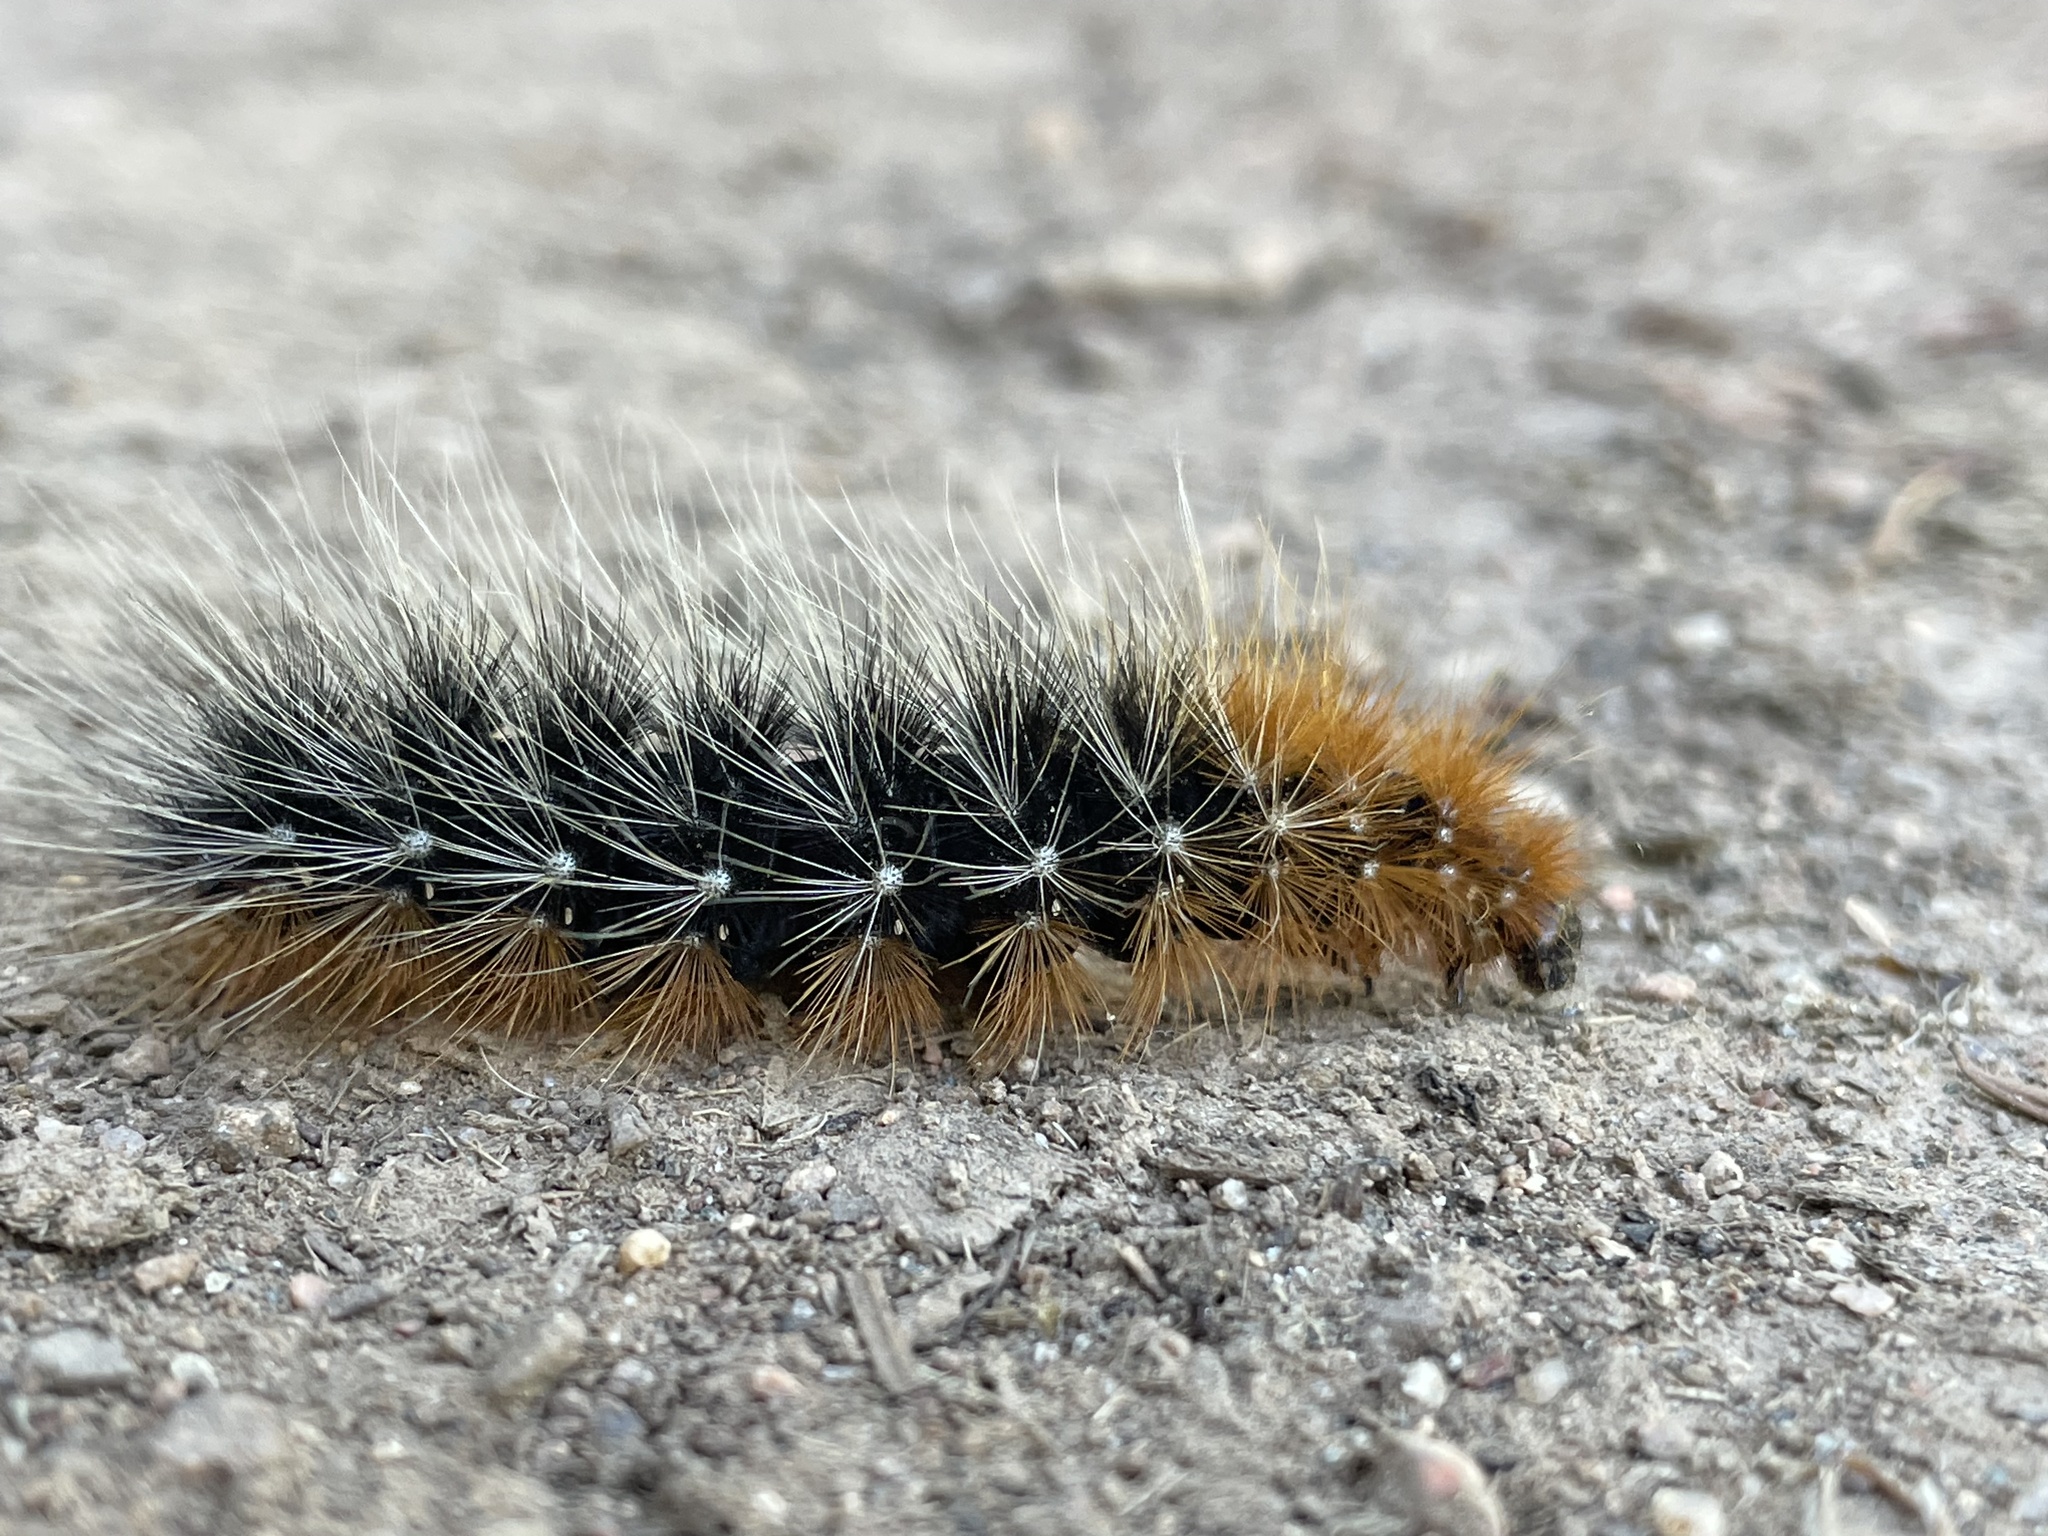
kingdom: Animalia
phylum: Arthropoda
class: Insecta
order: Lepidoptera
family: Erebidae
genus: Arctia
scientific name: Arctia caja
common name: Garden tiger
